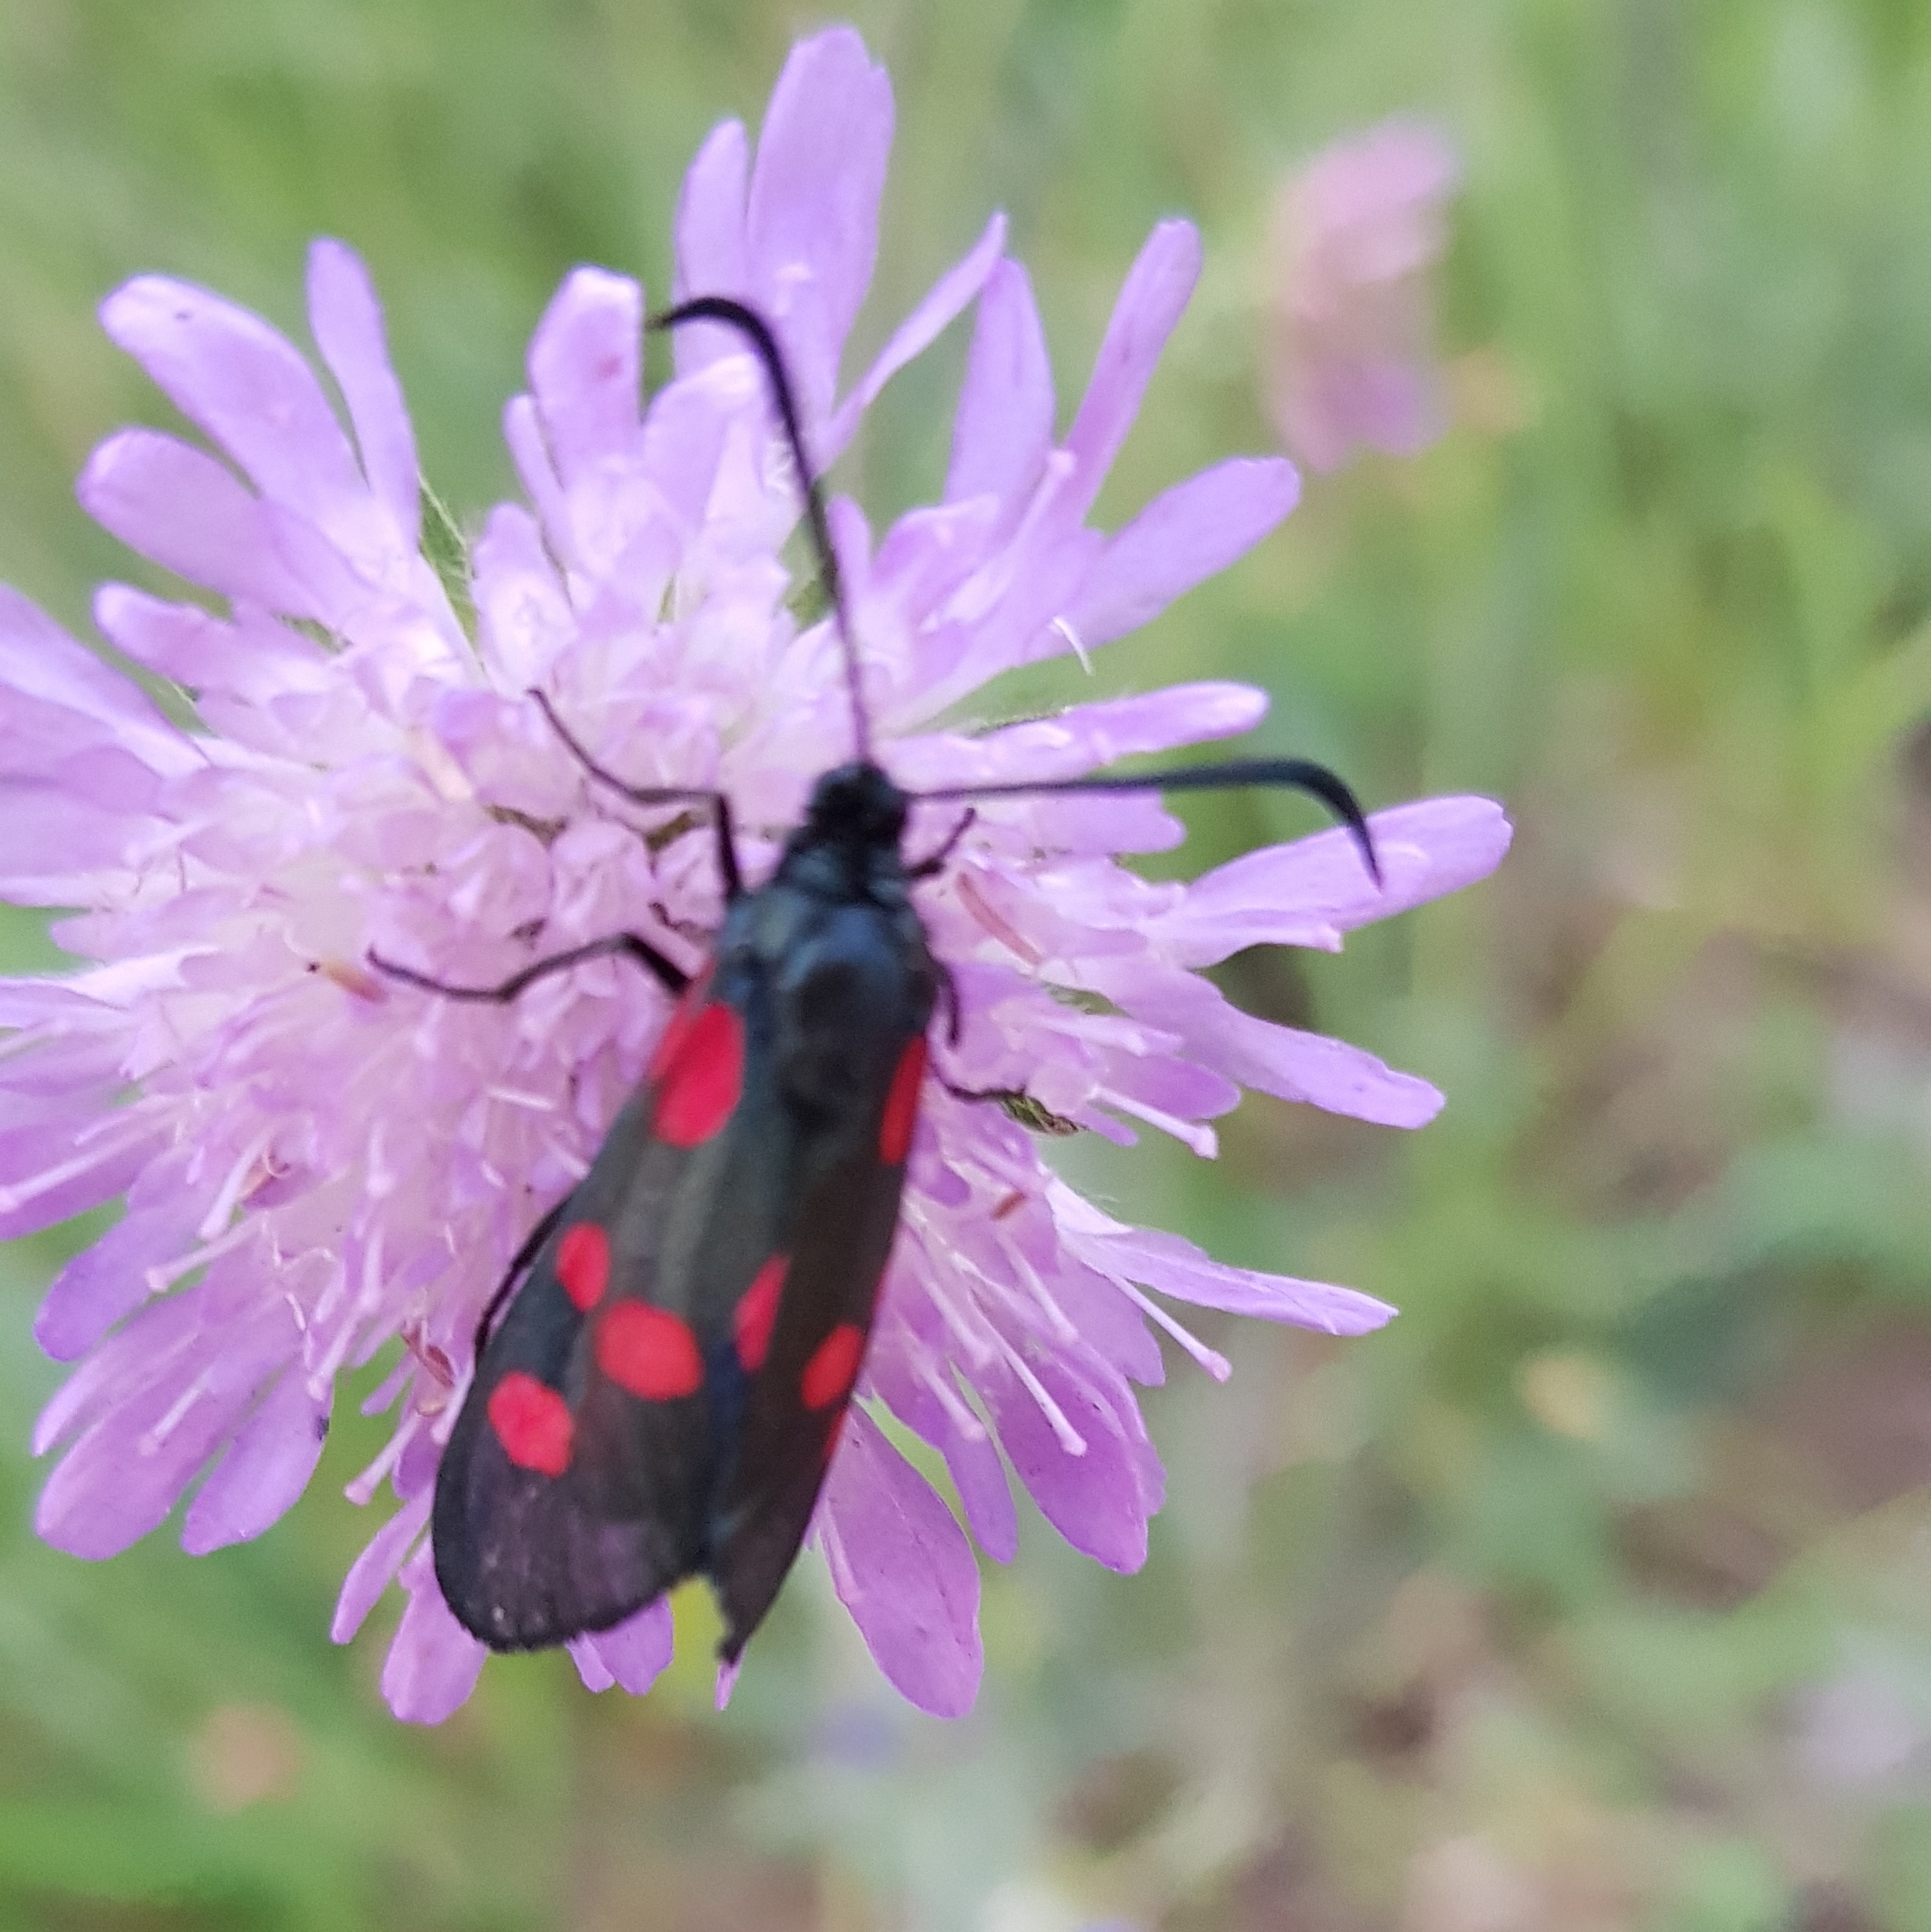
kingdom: Animalia
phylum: Arthropoda
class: Insecta
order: Lepidoptera
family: Zygaenidae
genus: Zygaena
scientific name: Zygaena lonicerae
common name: Narrow-bordered five-spot burnet
